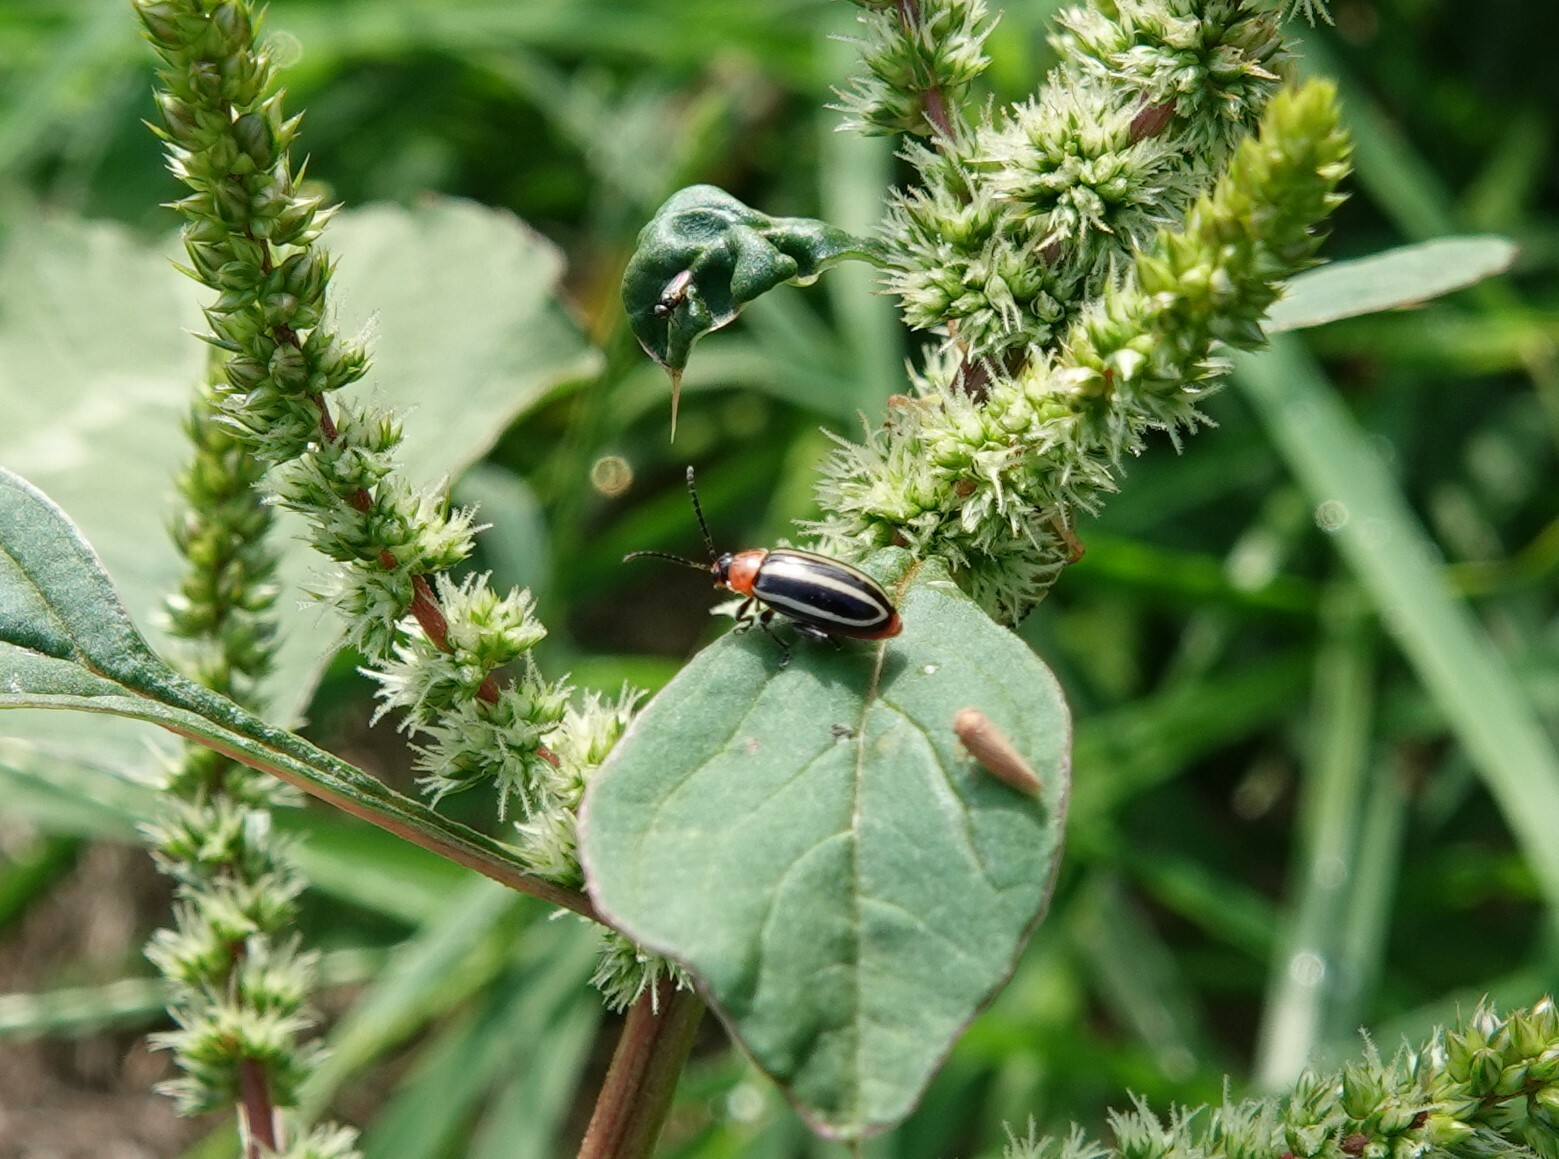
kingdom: Animalia
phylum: Arthropoda
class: Insecta
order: Coleoptera
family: Chrysomelidae
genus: Disonycha
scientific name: Disonycha glabrata
